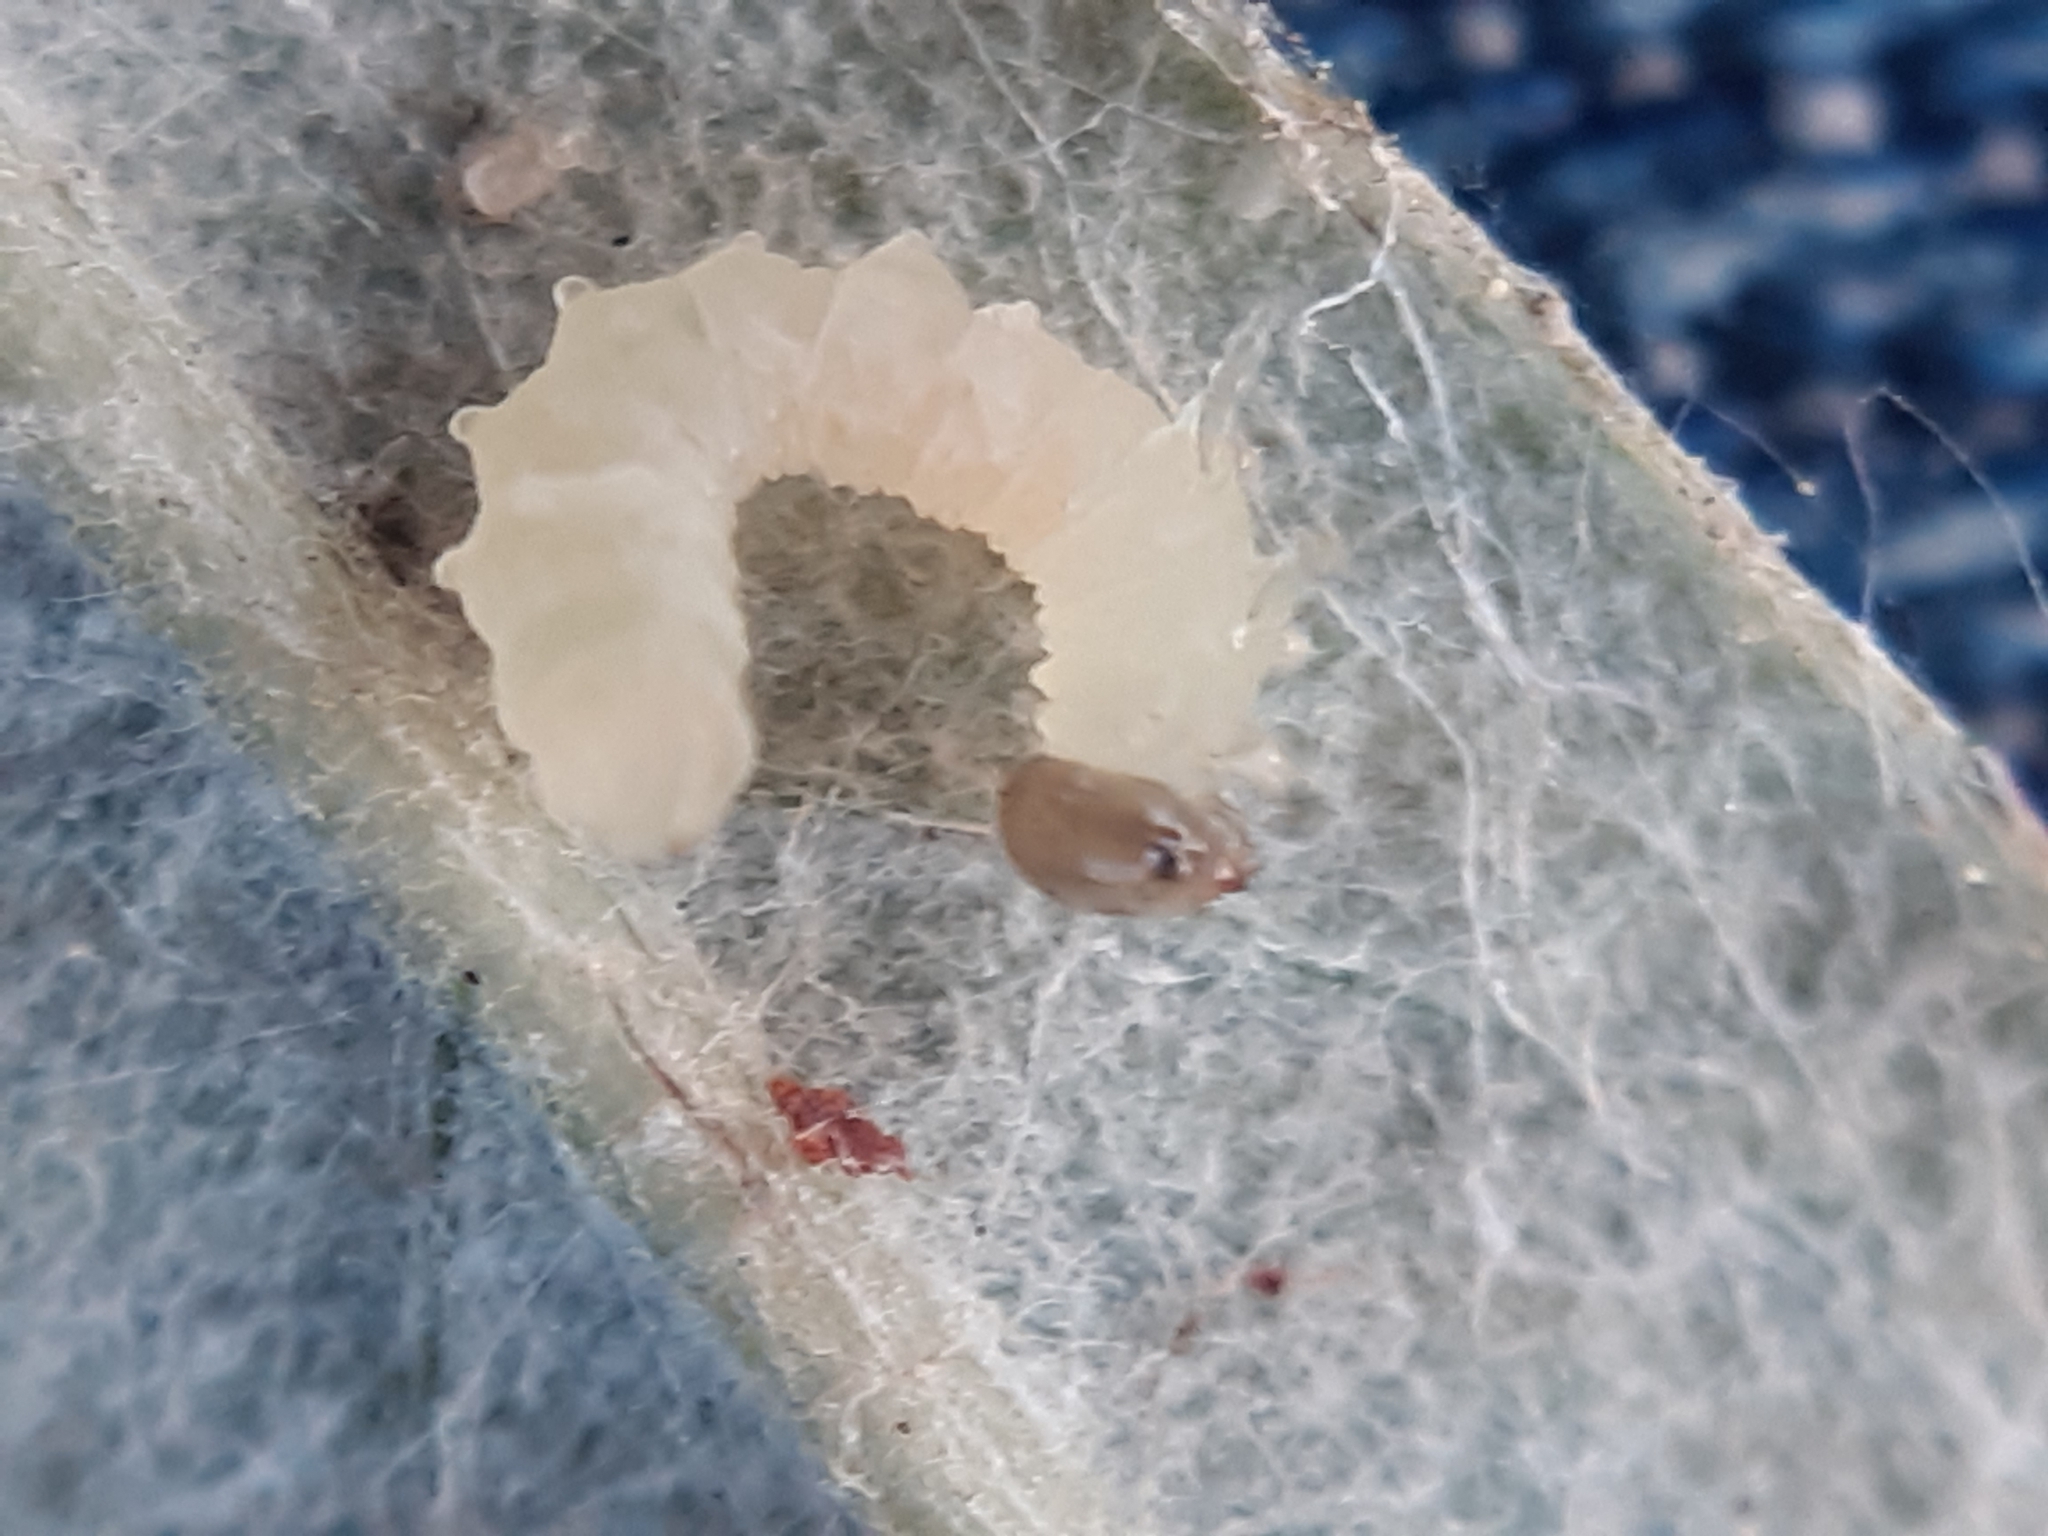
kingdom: Animalia
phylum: Arthropoda
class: Insecta
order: Hymenoptera
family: Tenthredinidae
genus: Euura
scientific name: Euura kriechbaumeri
